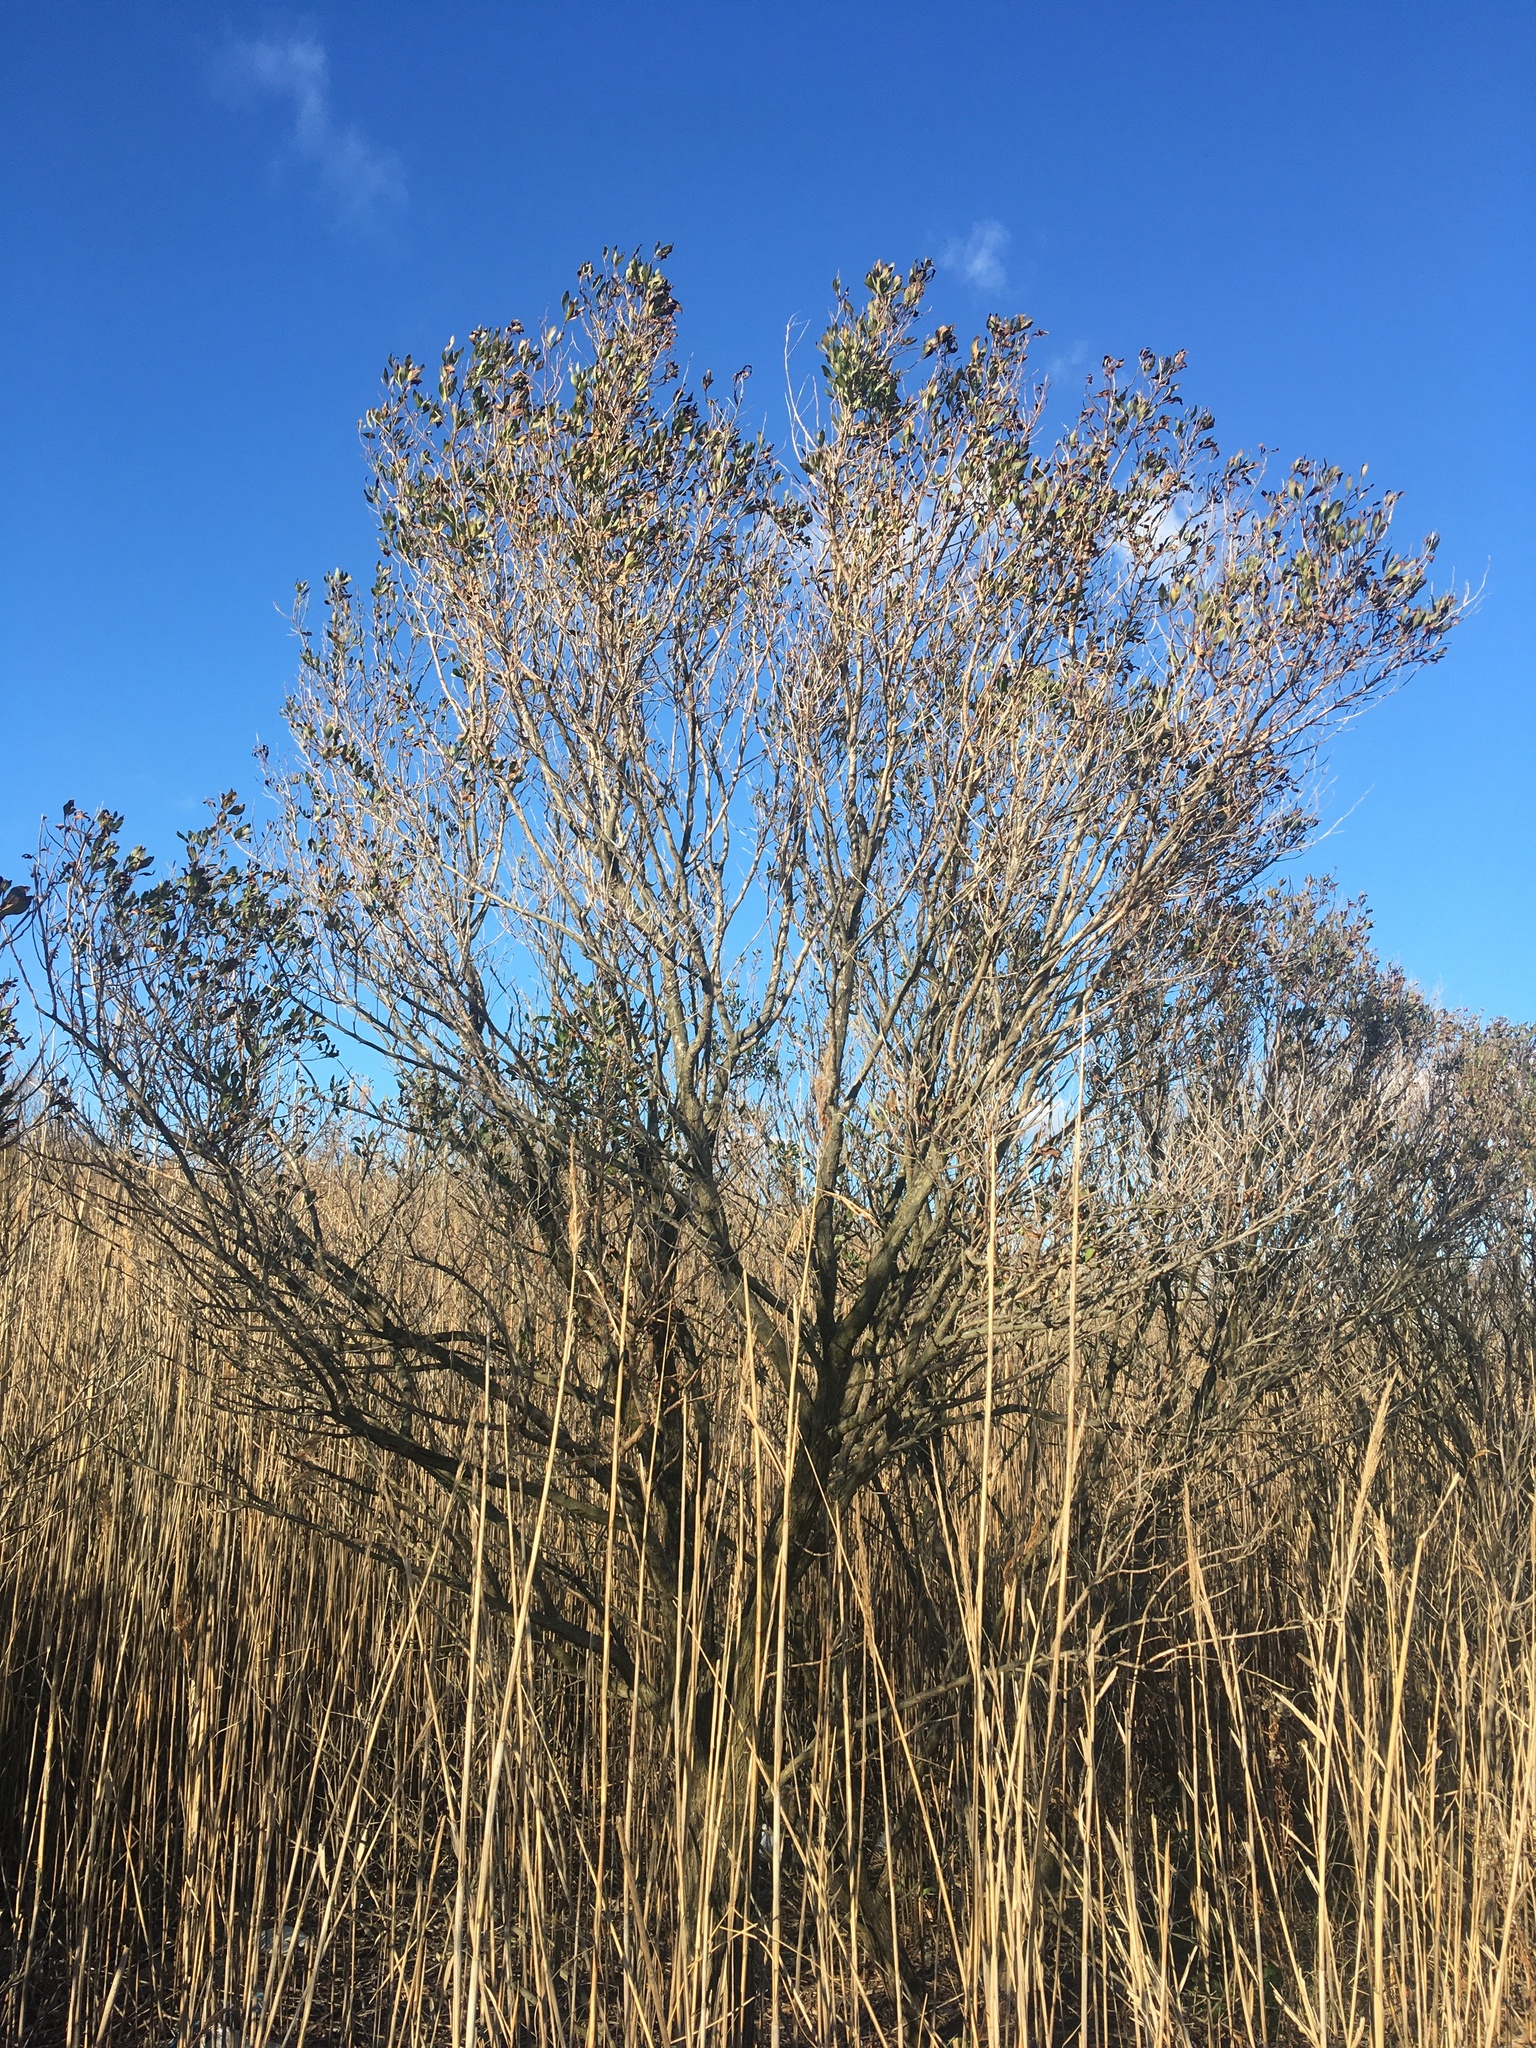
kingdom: Plantae
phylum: Tracheophyta
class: Magnoliopsida
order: Asterales
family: Asteraceae
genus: Baccharis
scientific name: Baccharis halimifolia
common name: Eastern baccharis
